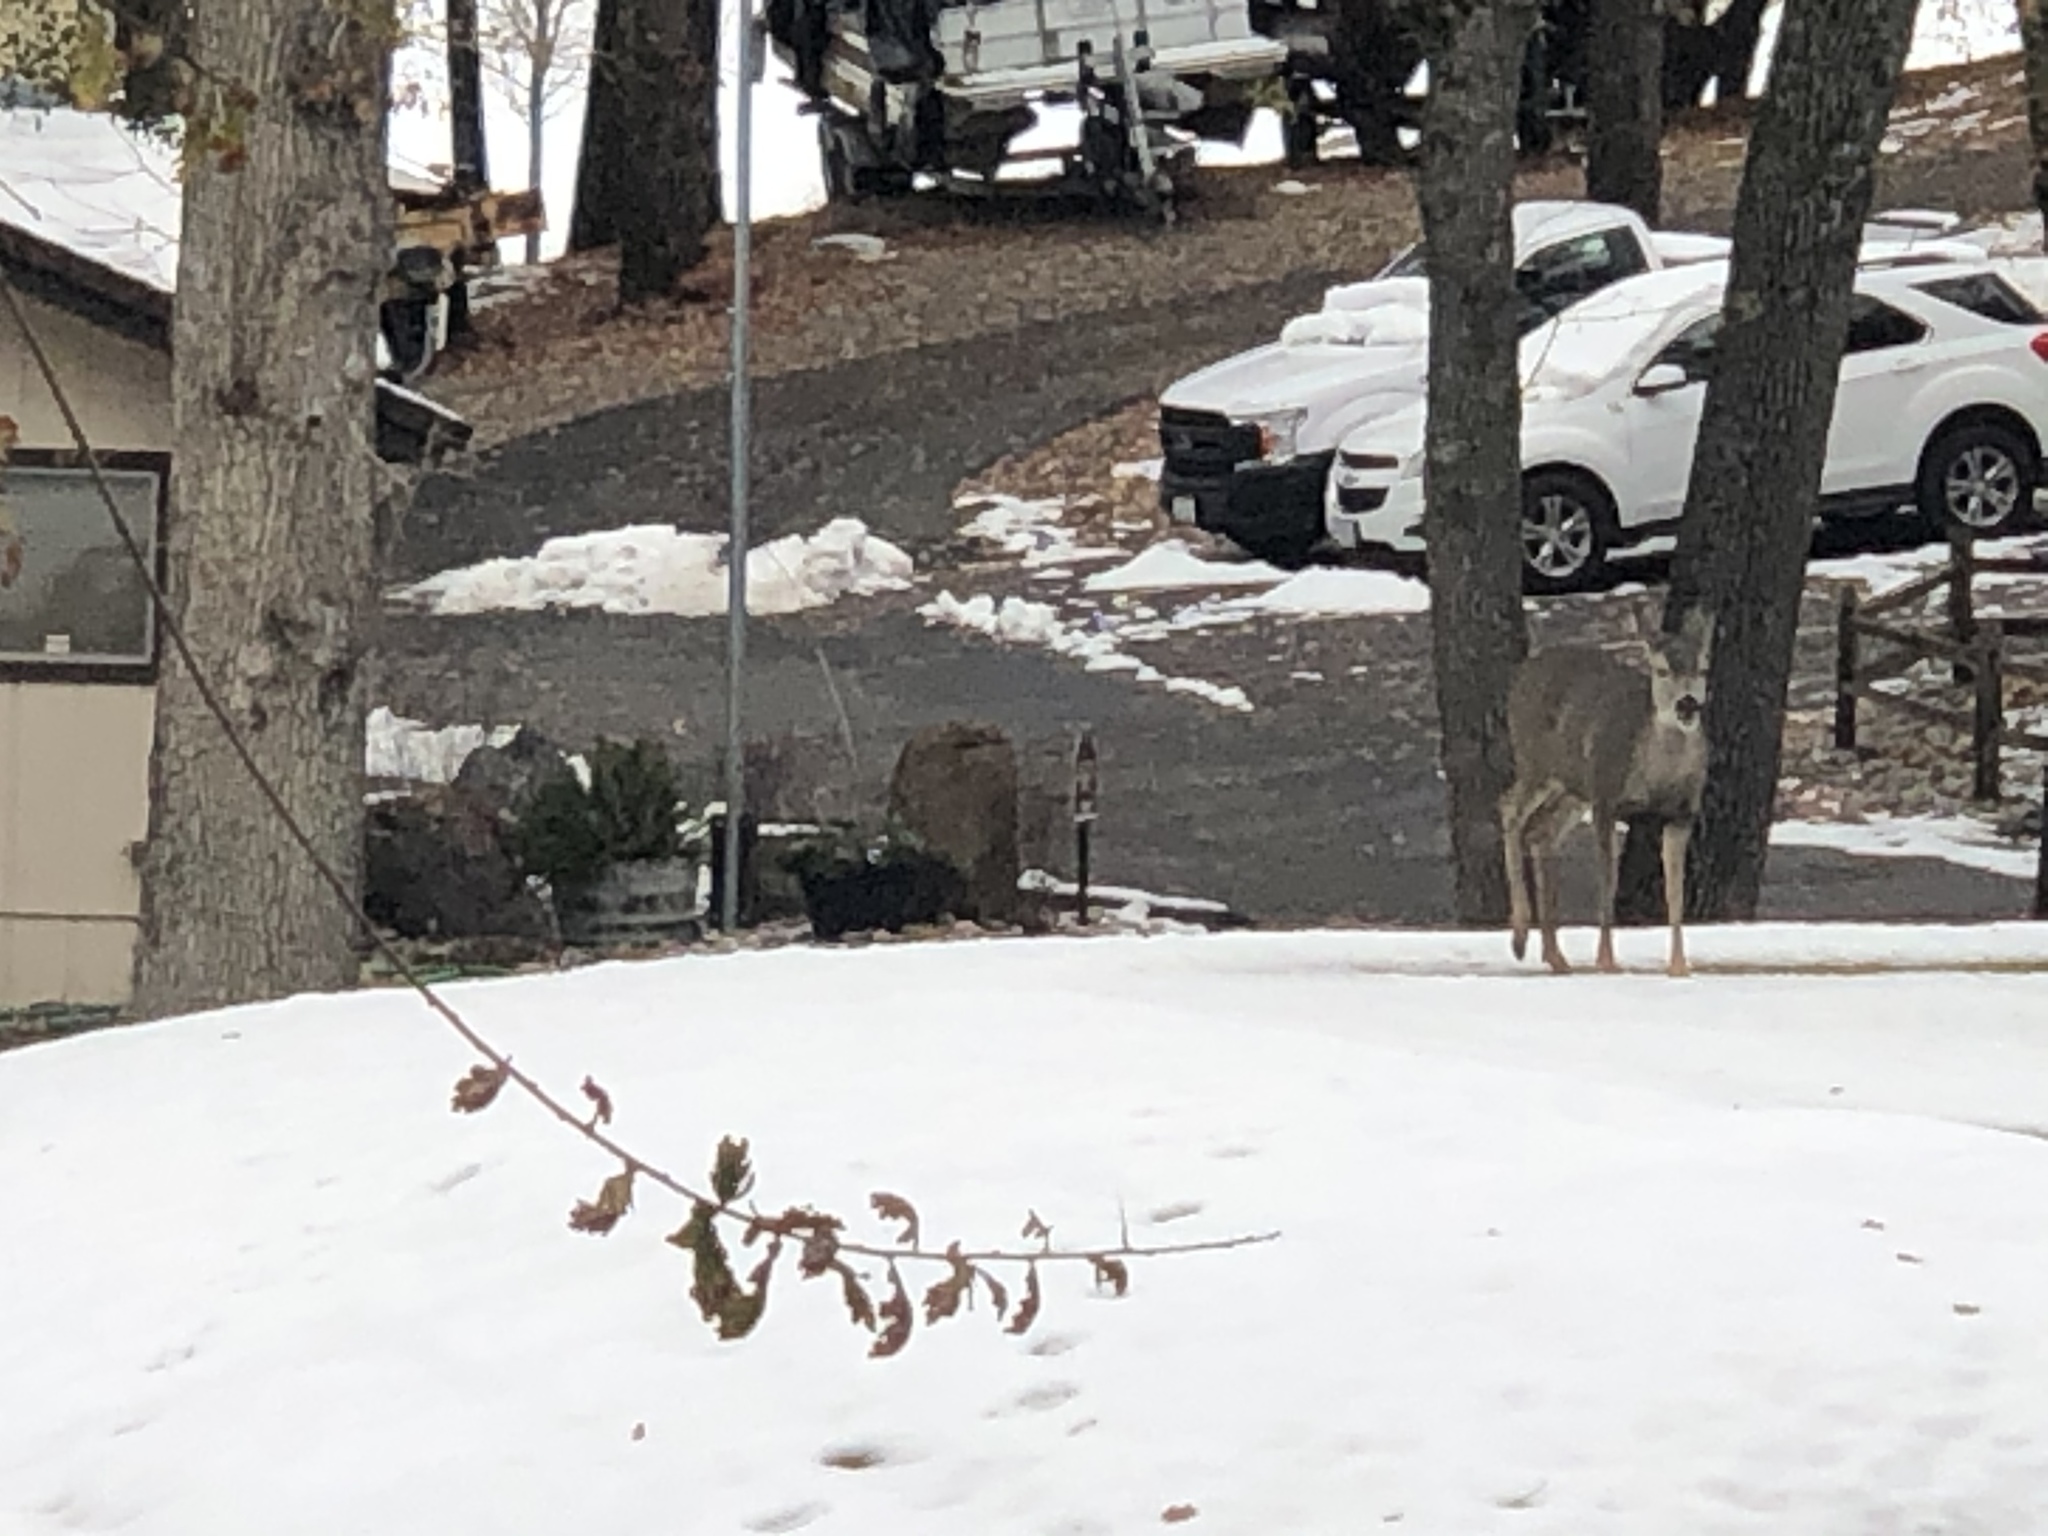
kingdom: Animalia
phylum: Chordata
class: Mammalia
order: Artiodactyla
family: Cervidae
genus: Odocoileus
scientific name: Odocoileus hemionus
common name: Mule deer
